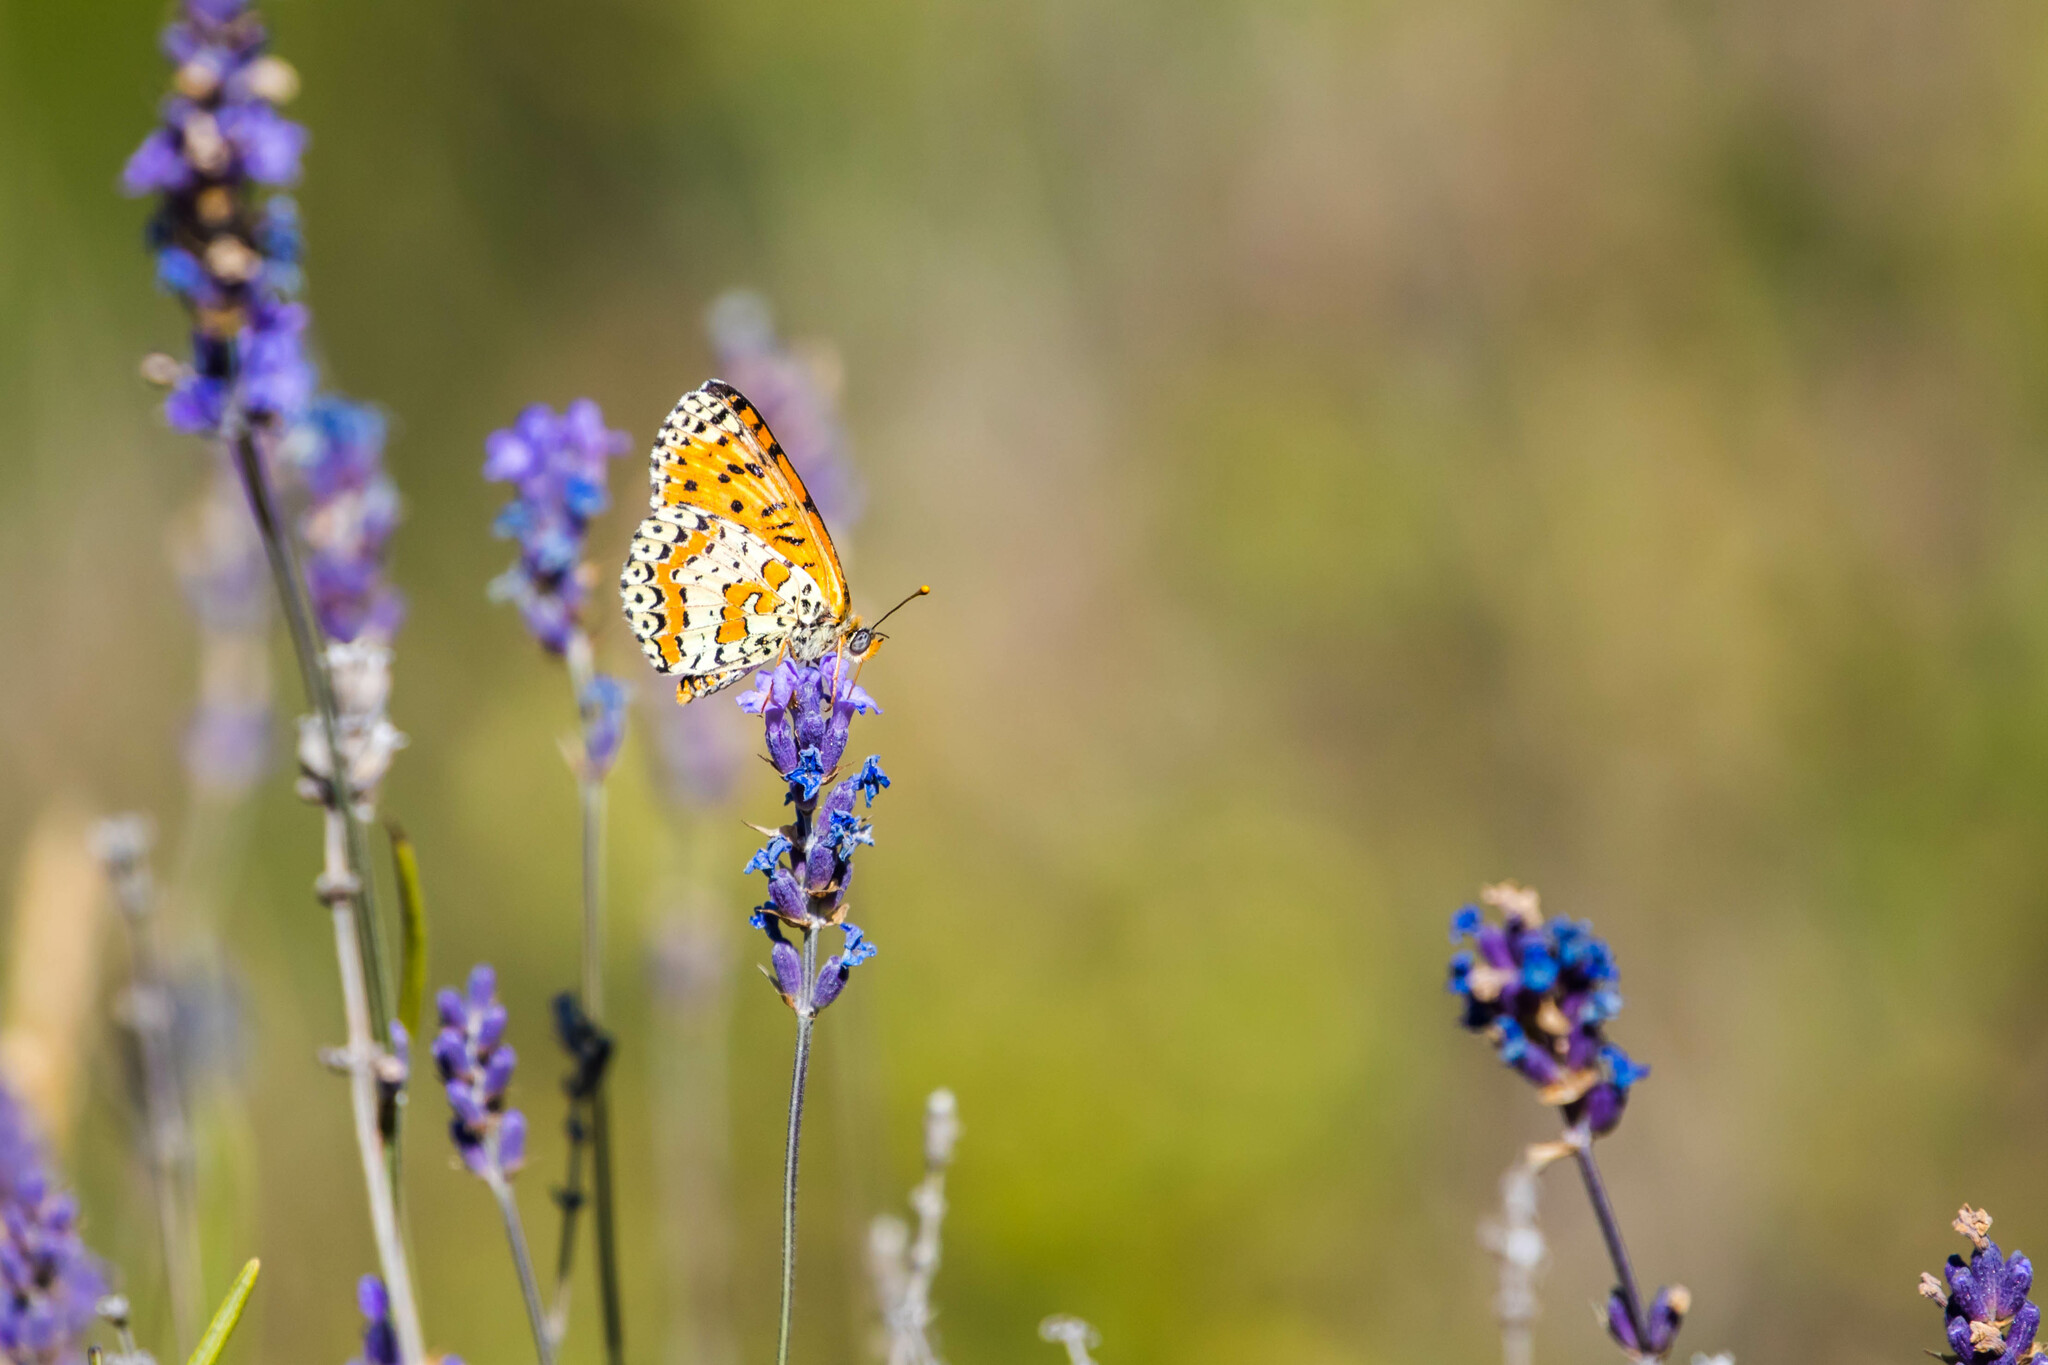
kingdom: Animalia
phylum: Arthropoda
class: Insecta
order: Lepidoptera
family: Nymphalidae
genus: Melitaea
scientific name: Melitaea didyma
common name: Spotted fritillary
